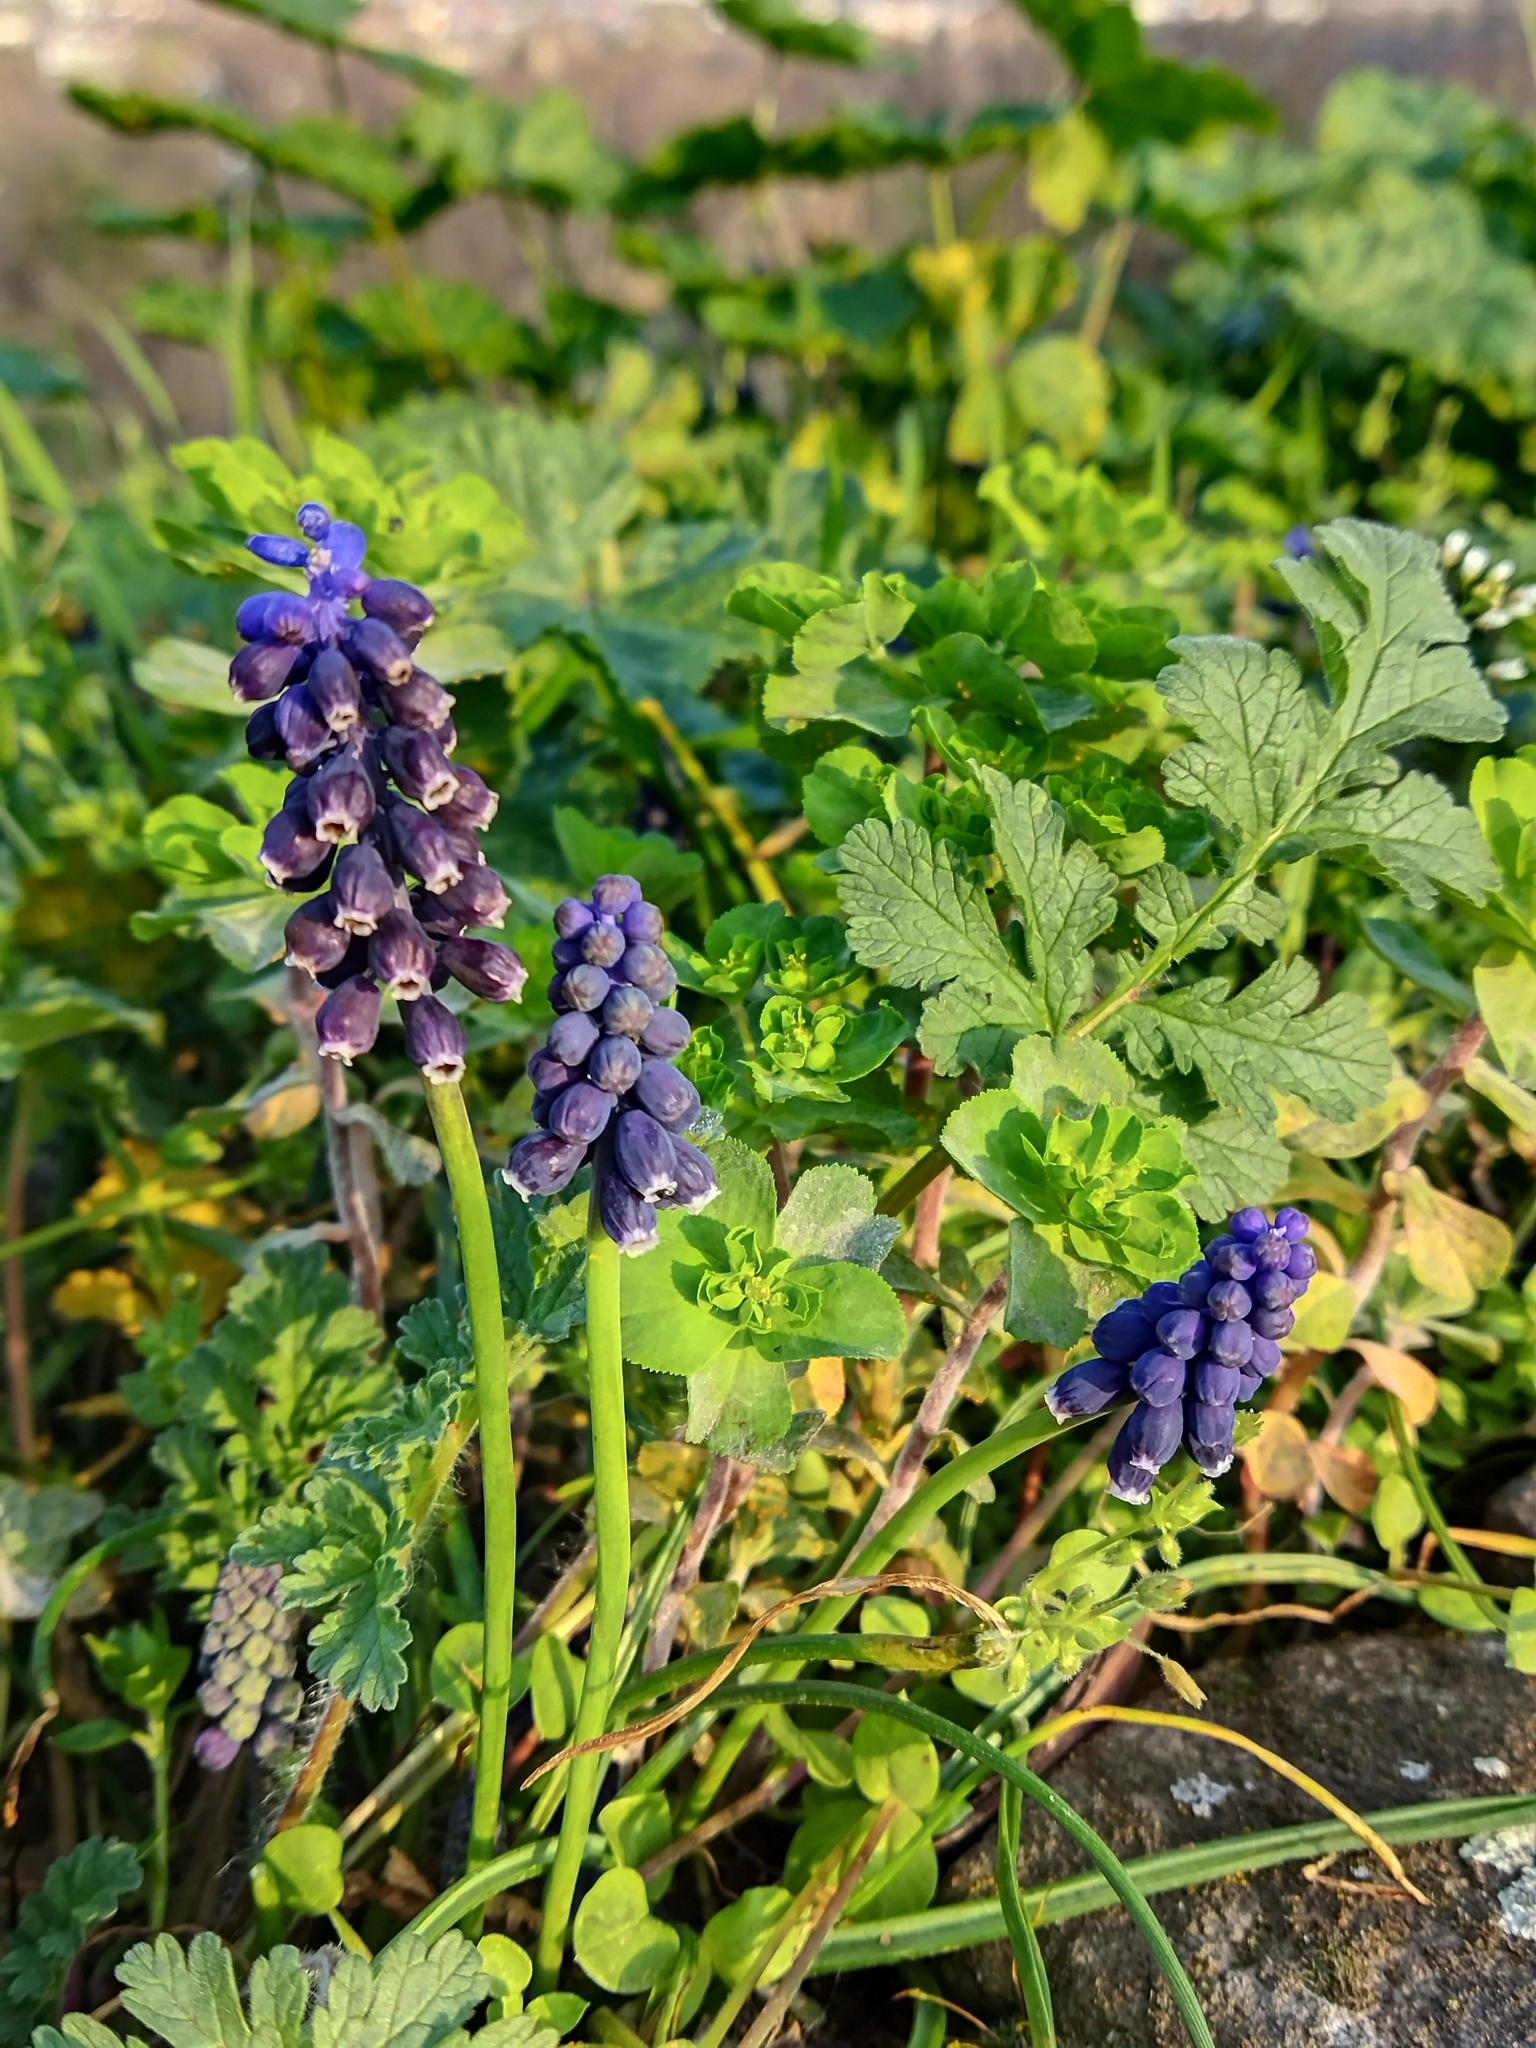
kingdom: Plantae
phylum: Tracheophyta
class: Liliopsida
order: Asparagales
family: Asparagaceae
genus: Muscari
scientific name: Muscari neglectum
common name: Grape-hyacinth
